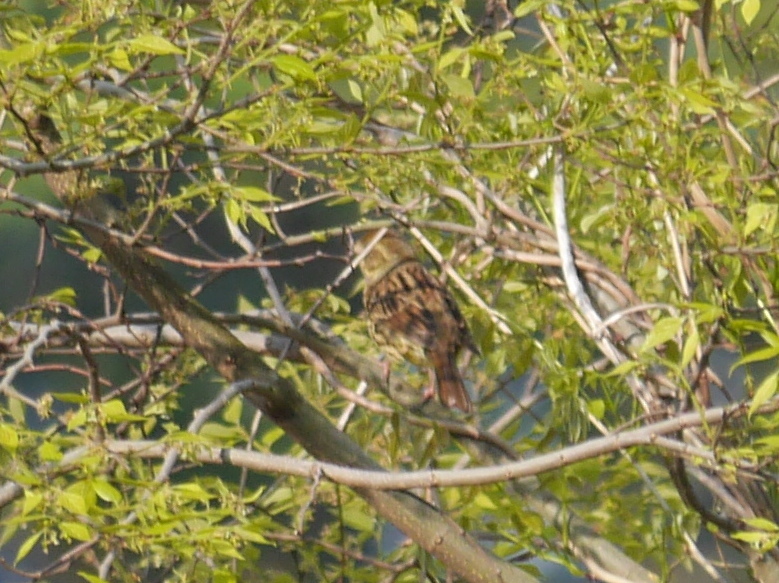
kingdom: Animalia
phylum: Chordata
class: Aves
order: Passeriformes
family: Emberizidae
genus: Emberiza
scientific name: Emberiza personata
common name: Masked bunting
